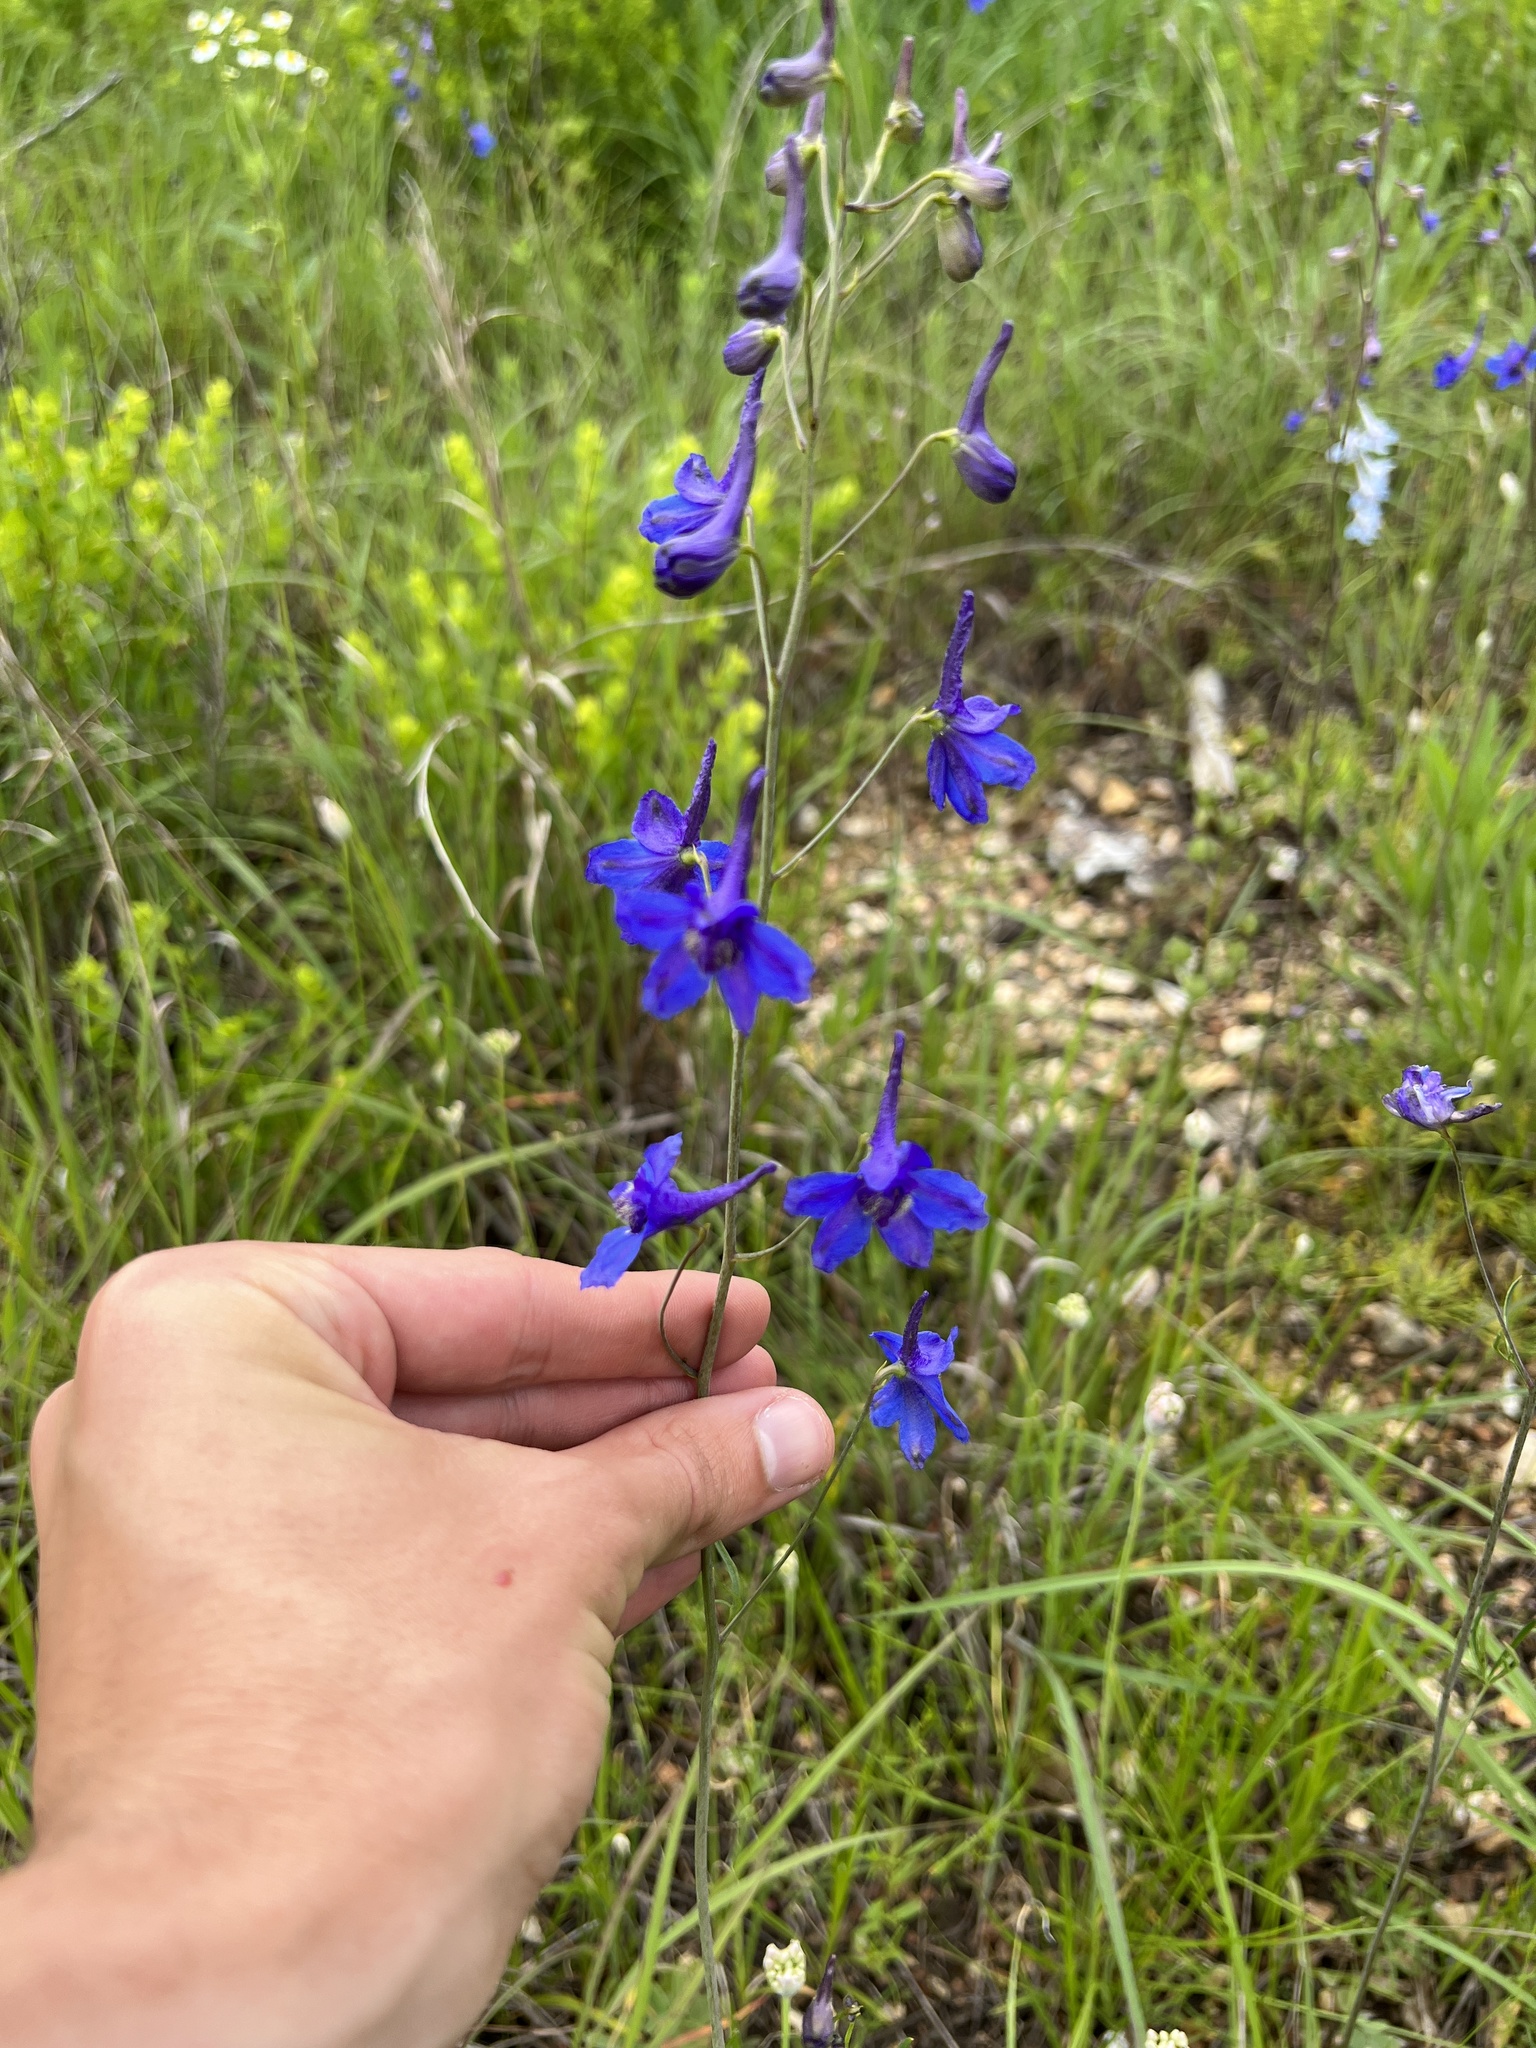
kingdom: Plantae
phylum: Tracheophyta
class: Magnoliopsida
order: Ranunculales
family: Ranunculaceae
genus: Delphinium
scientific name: Delphinium treleasei
